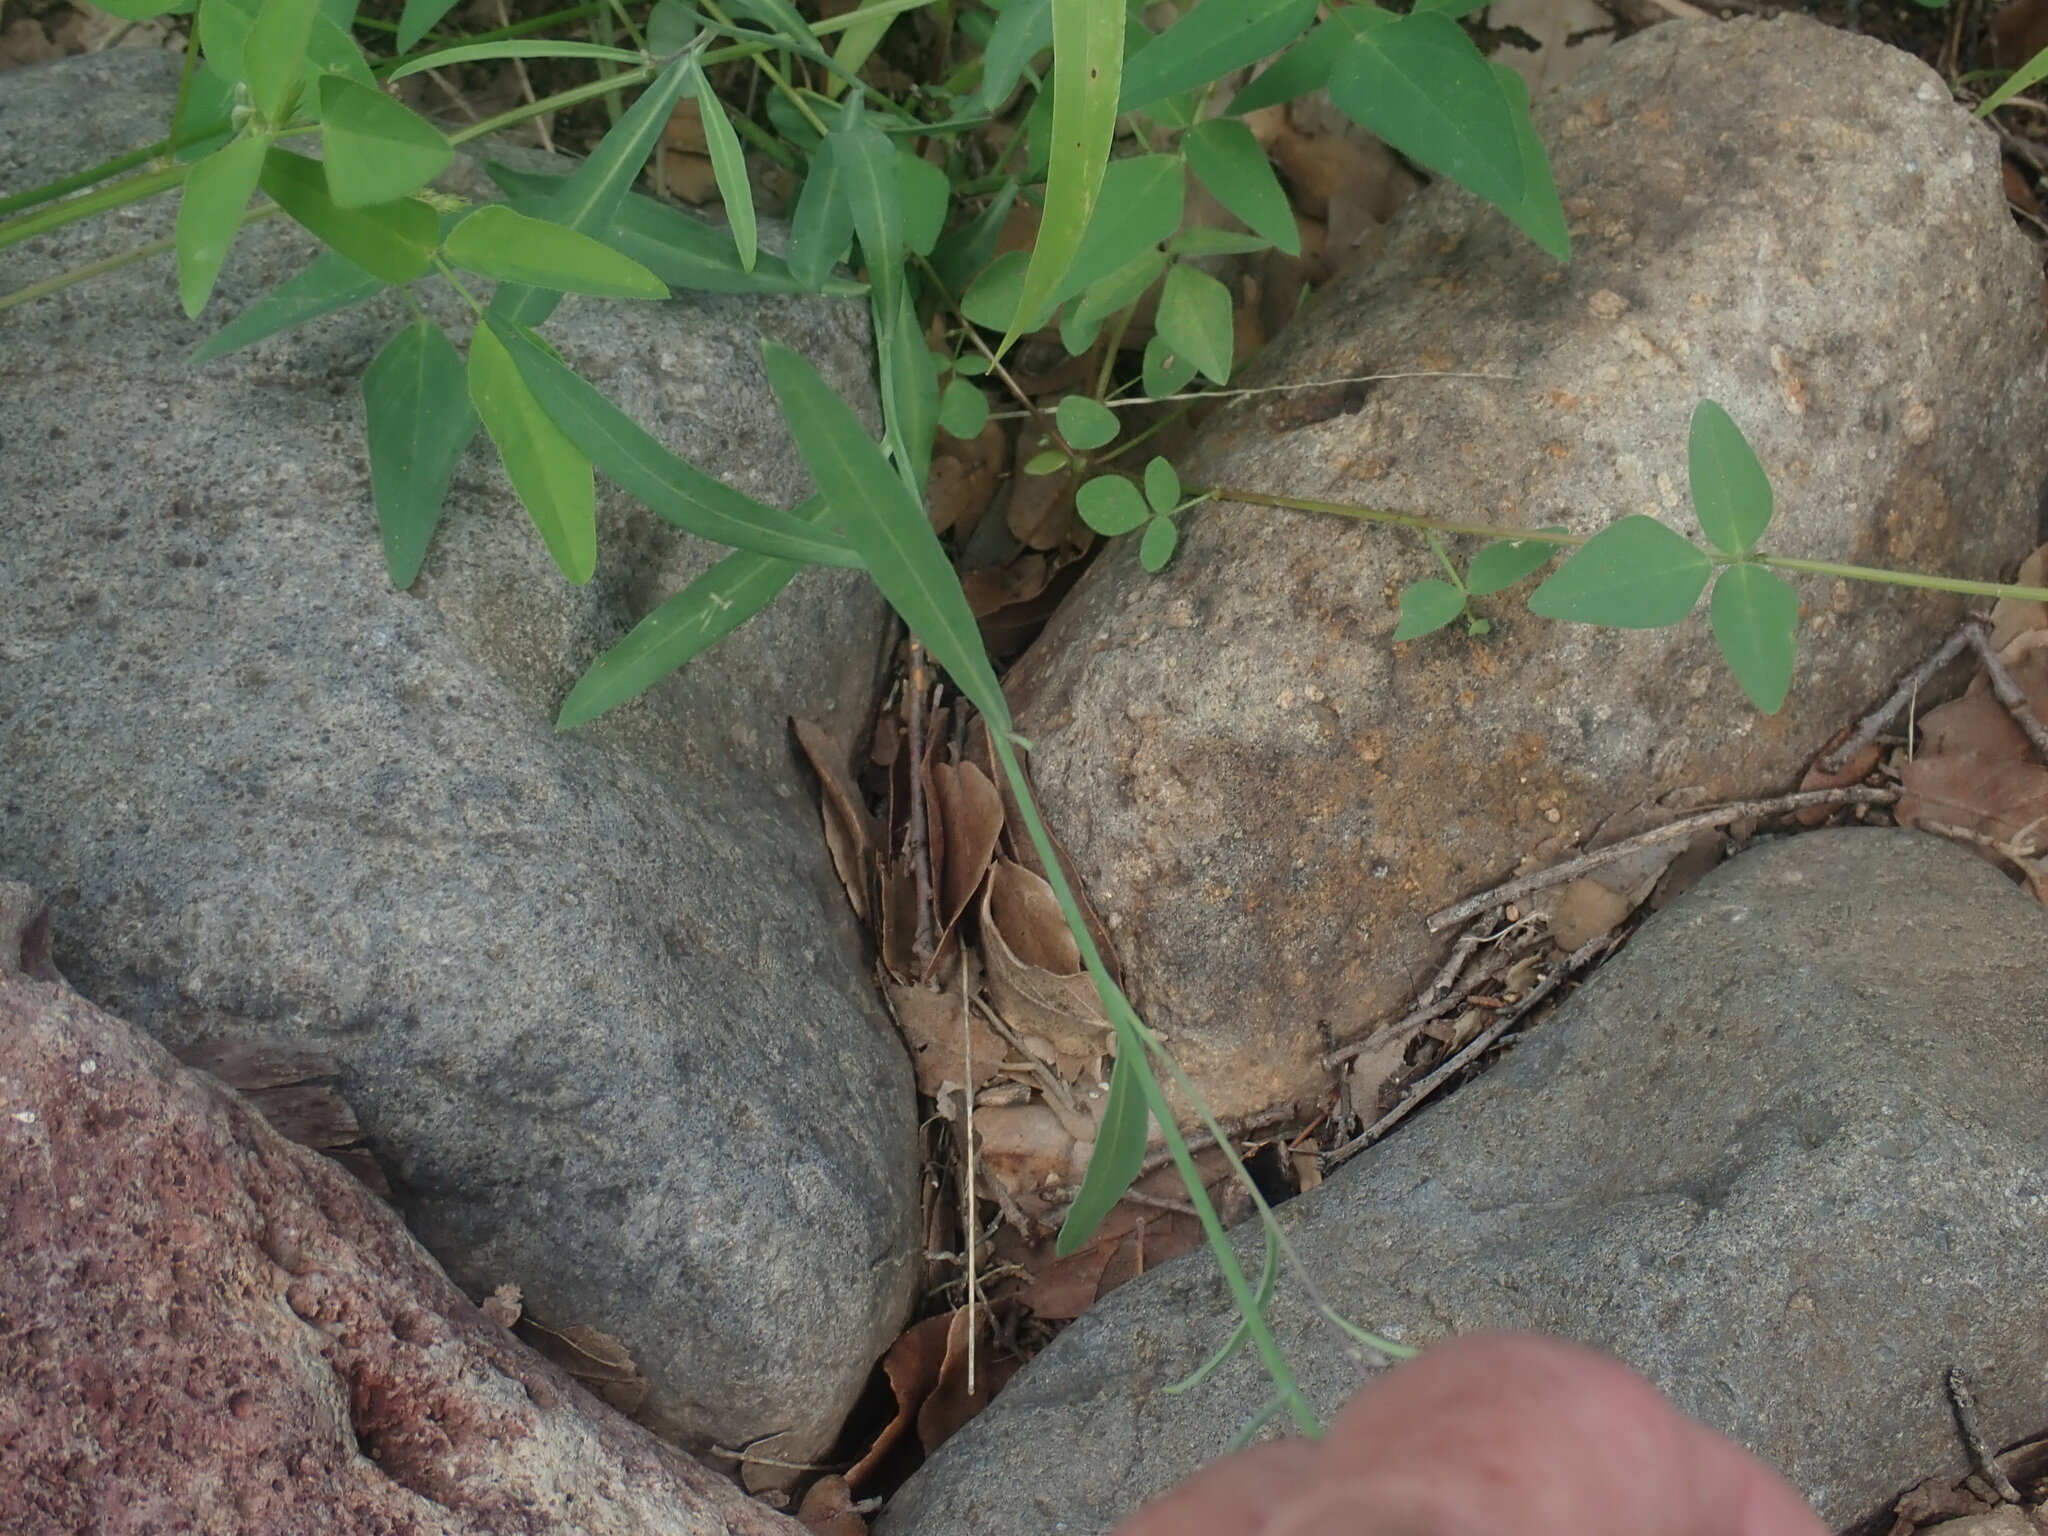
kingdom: Plantae
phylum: Tracheophyta
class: Magnoliopsida
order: Brassicales
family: Brassicaceae
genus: Hesperidanthus
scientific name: Hesperidanthus linearifolius
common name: Slim-leaf plains mustard
